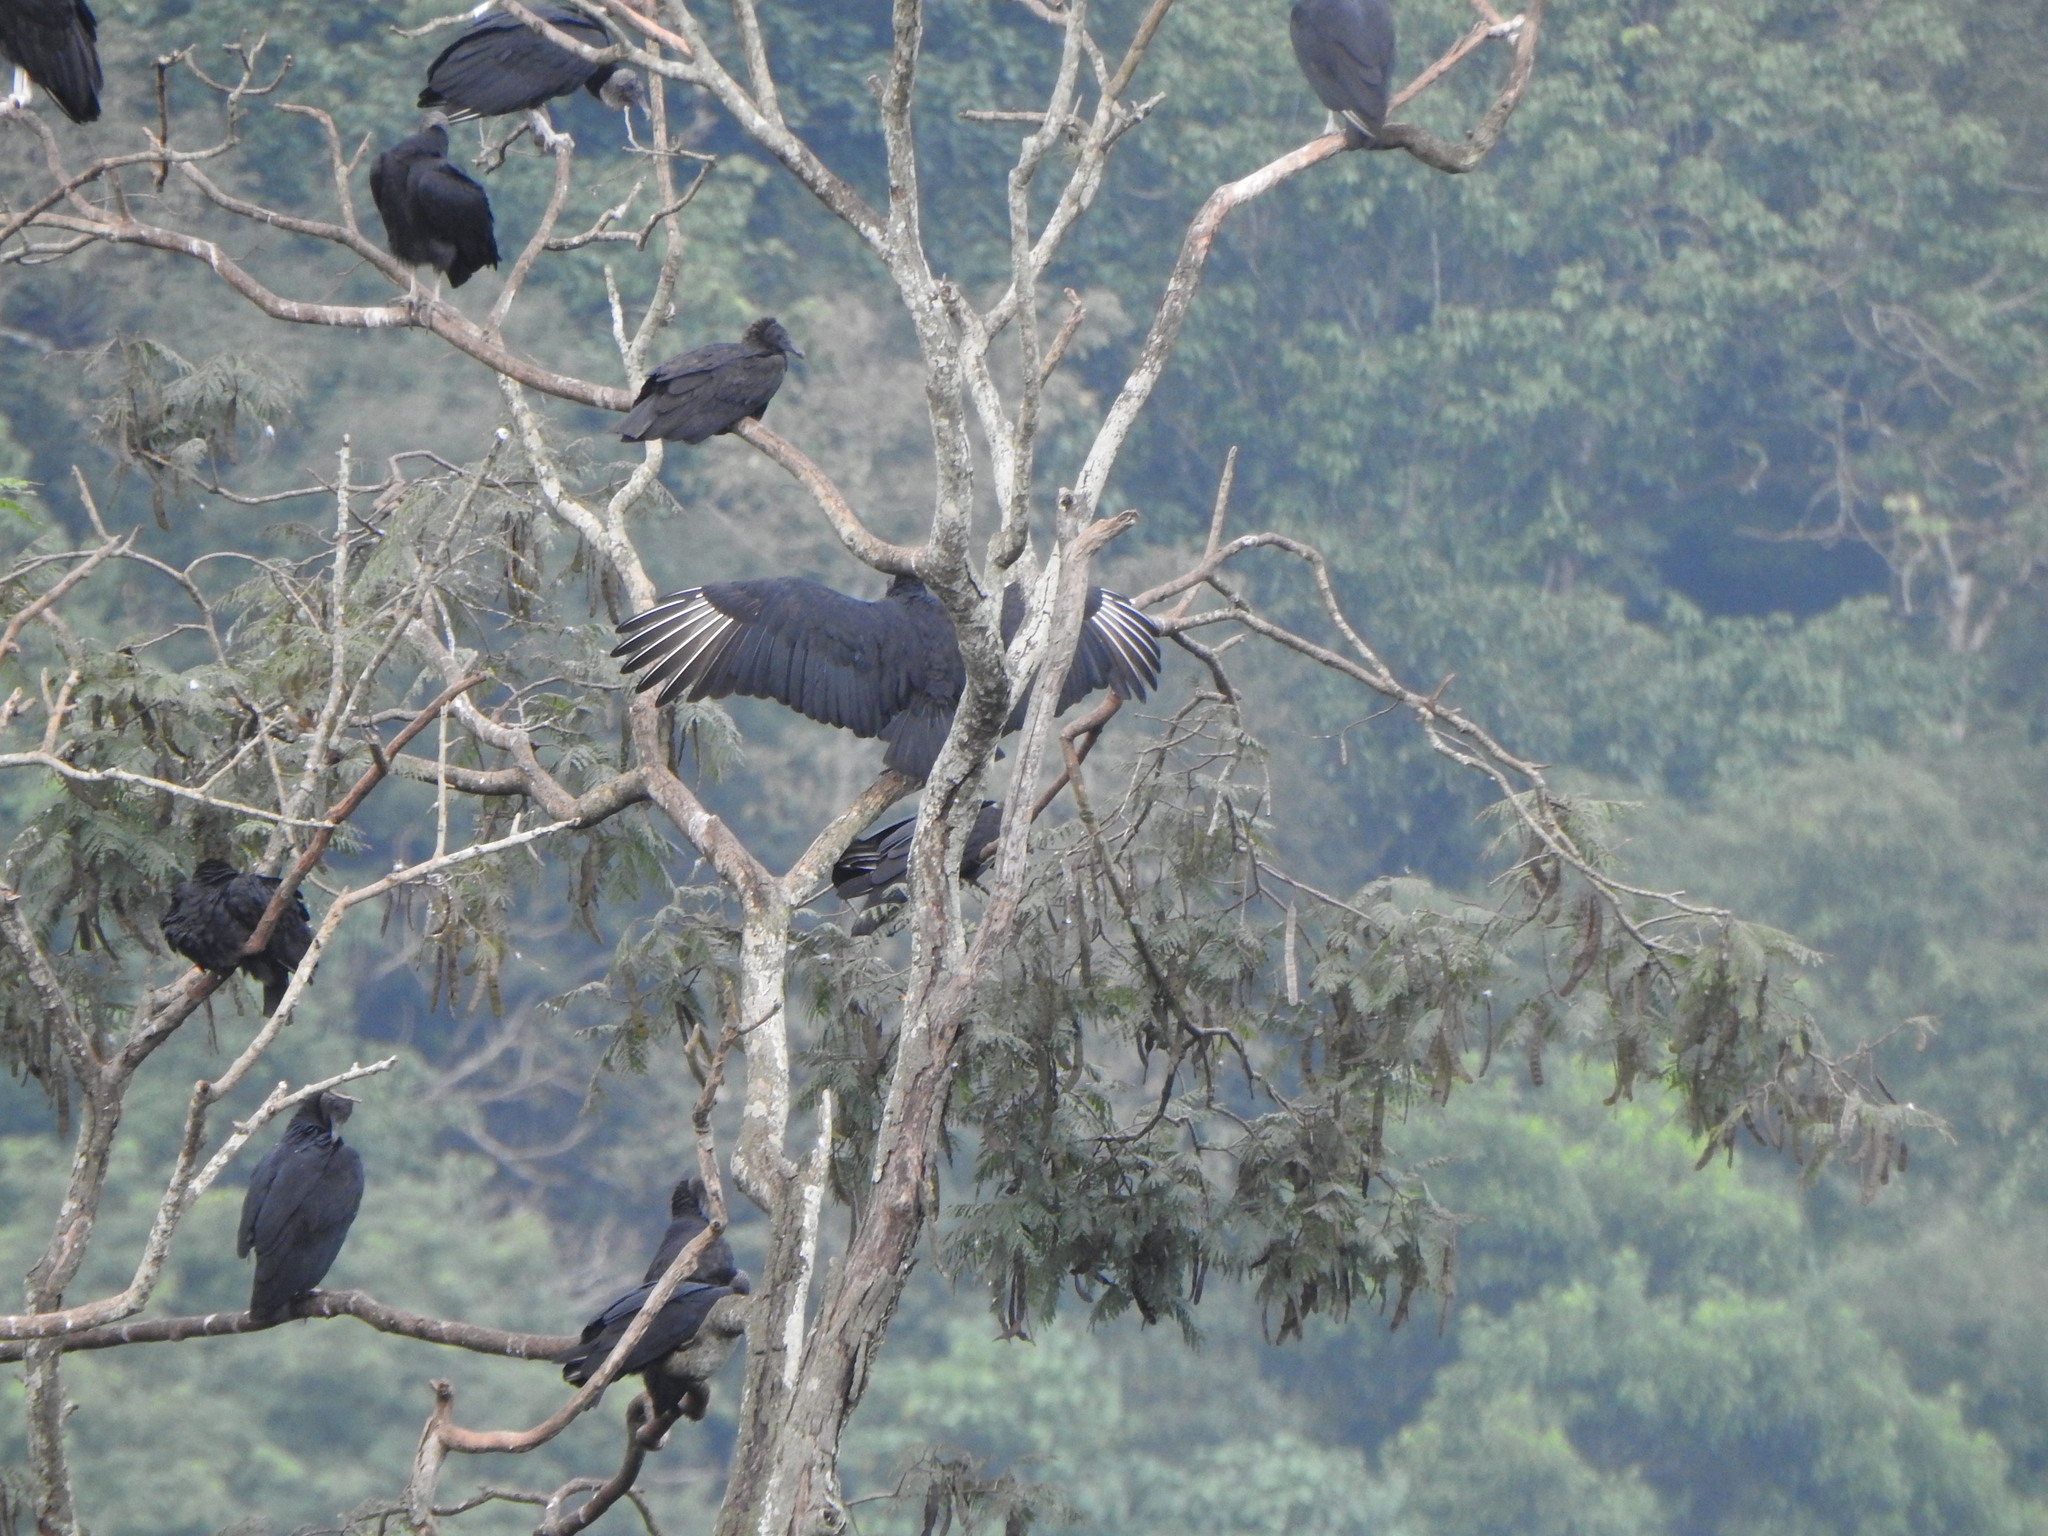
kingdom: Animalia
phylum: Chordata
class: Aves
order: Accipitriformes
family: Cathartidae
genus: Coragyps
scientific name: Coragyps atratus
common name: Black vulture
